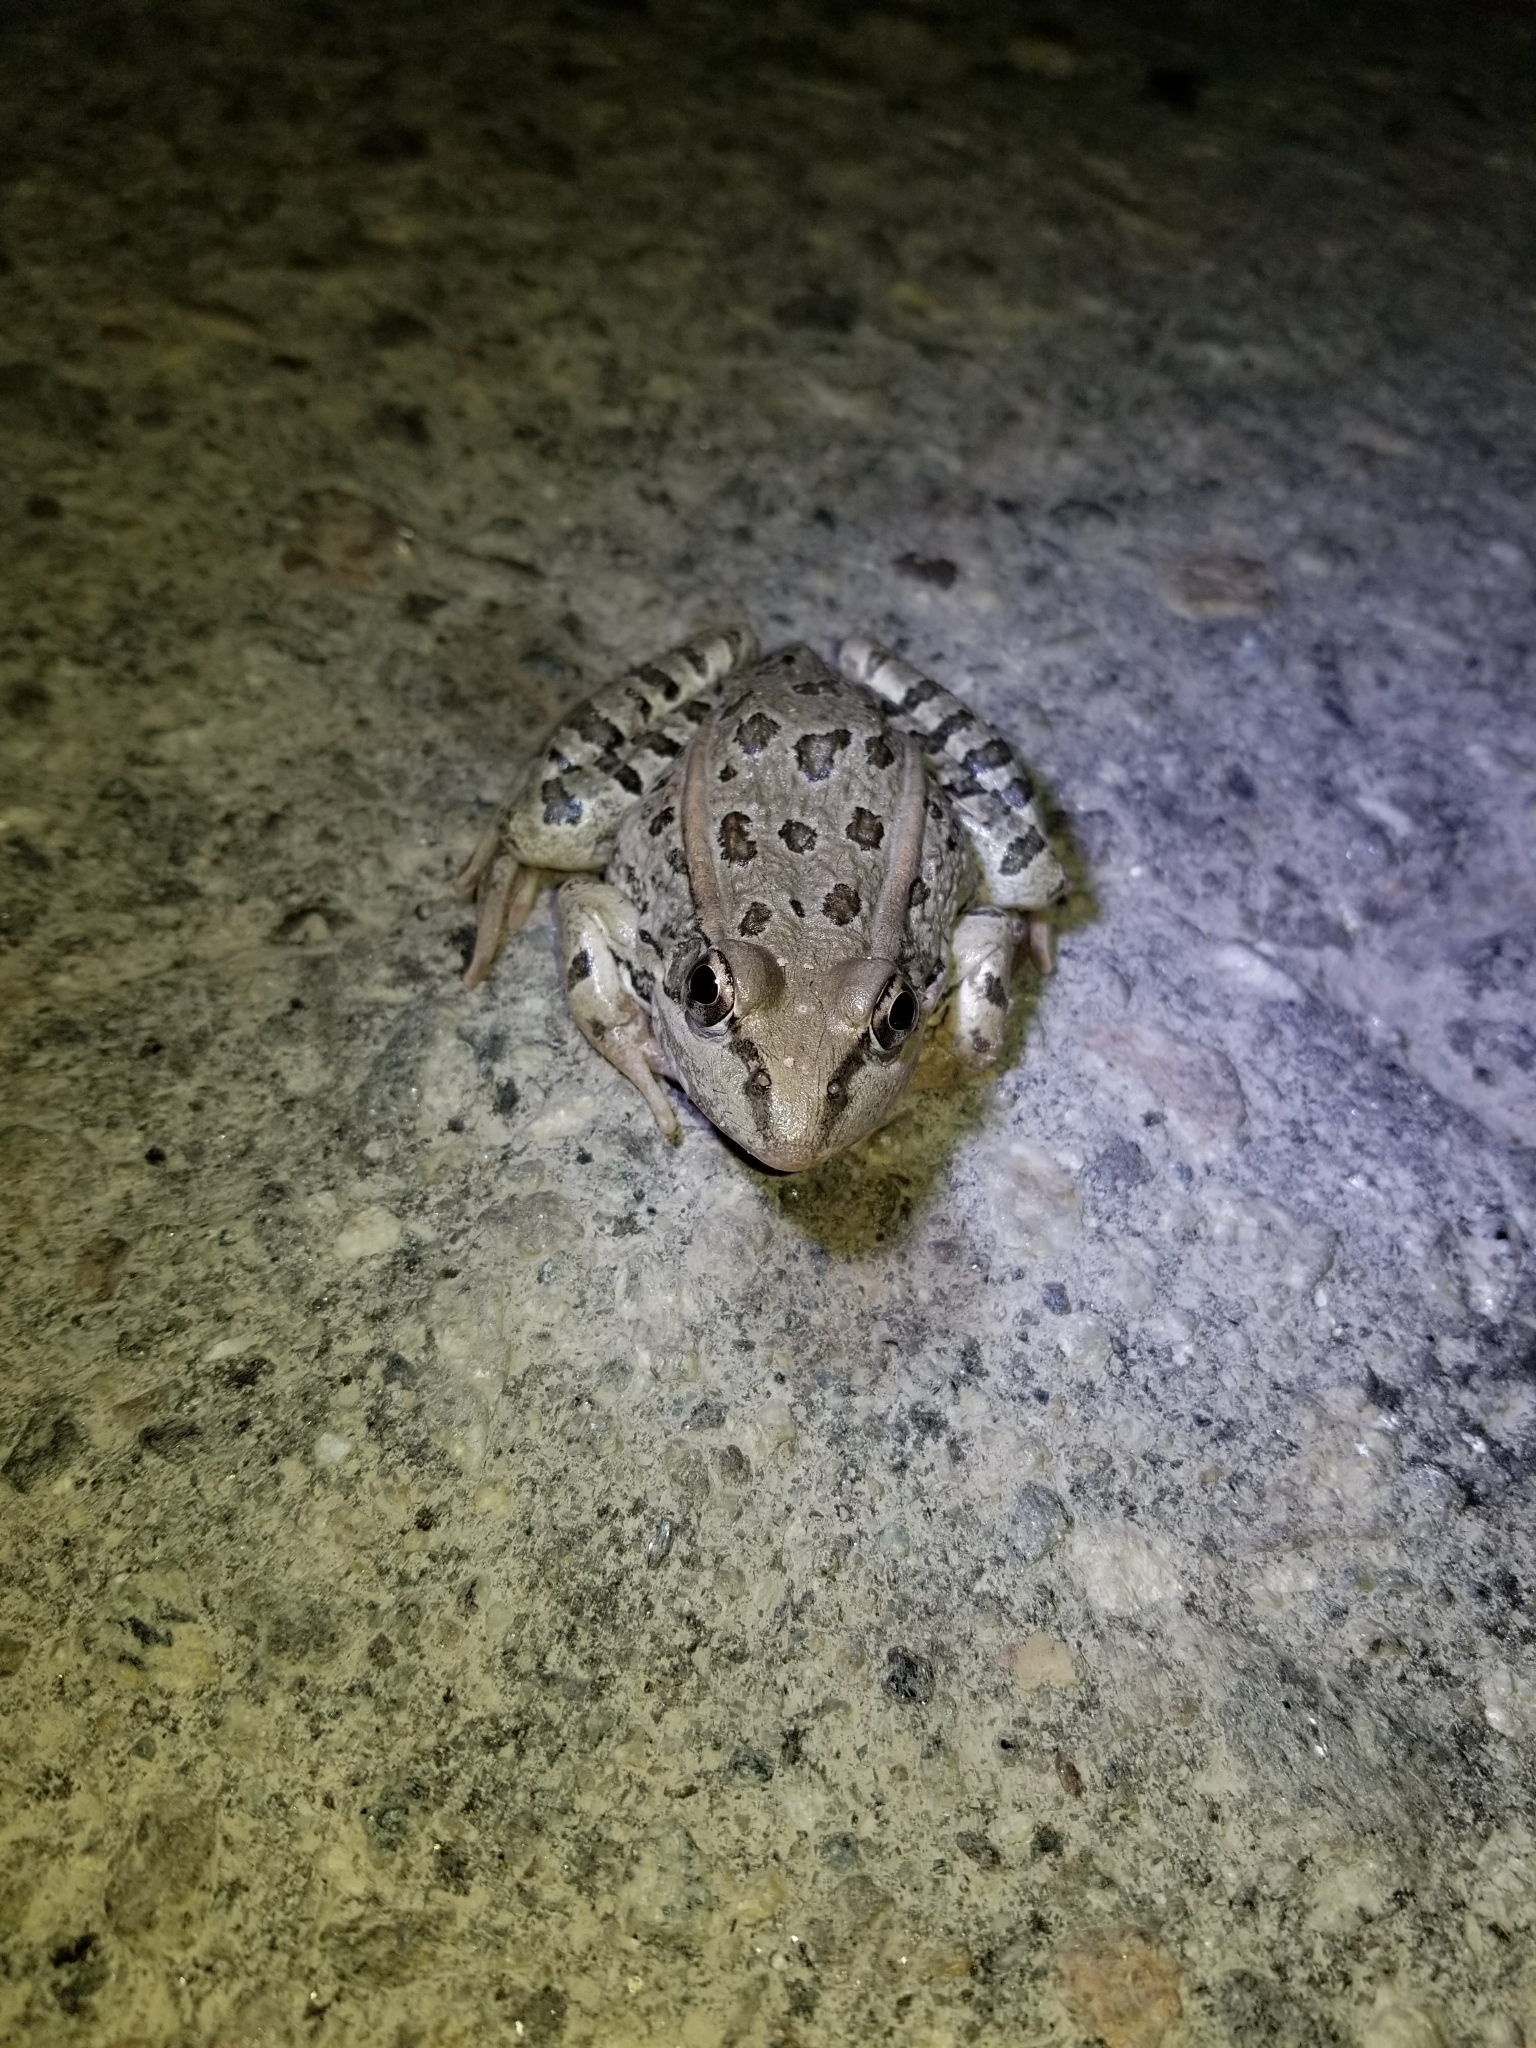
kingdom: Animalia
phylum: Chordata
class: Amphibia
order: Anura
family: Ranidae
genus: Lithobates
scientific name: Lithobates berlandieri
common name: Rio grande leopard frog
